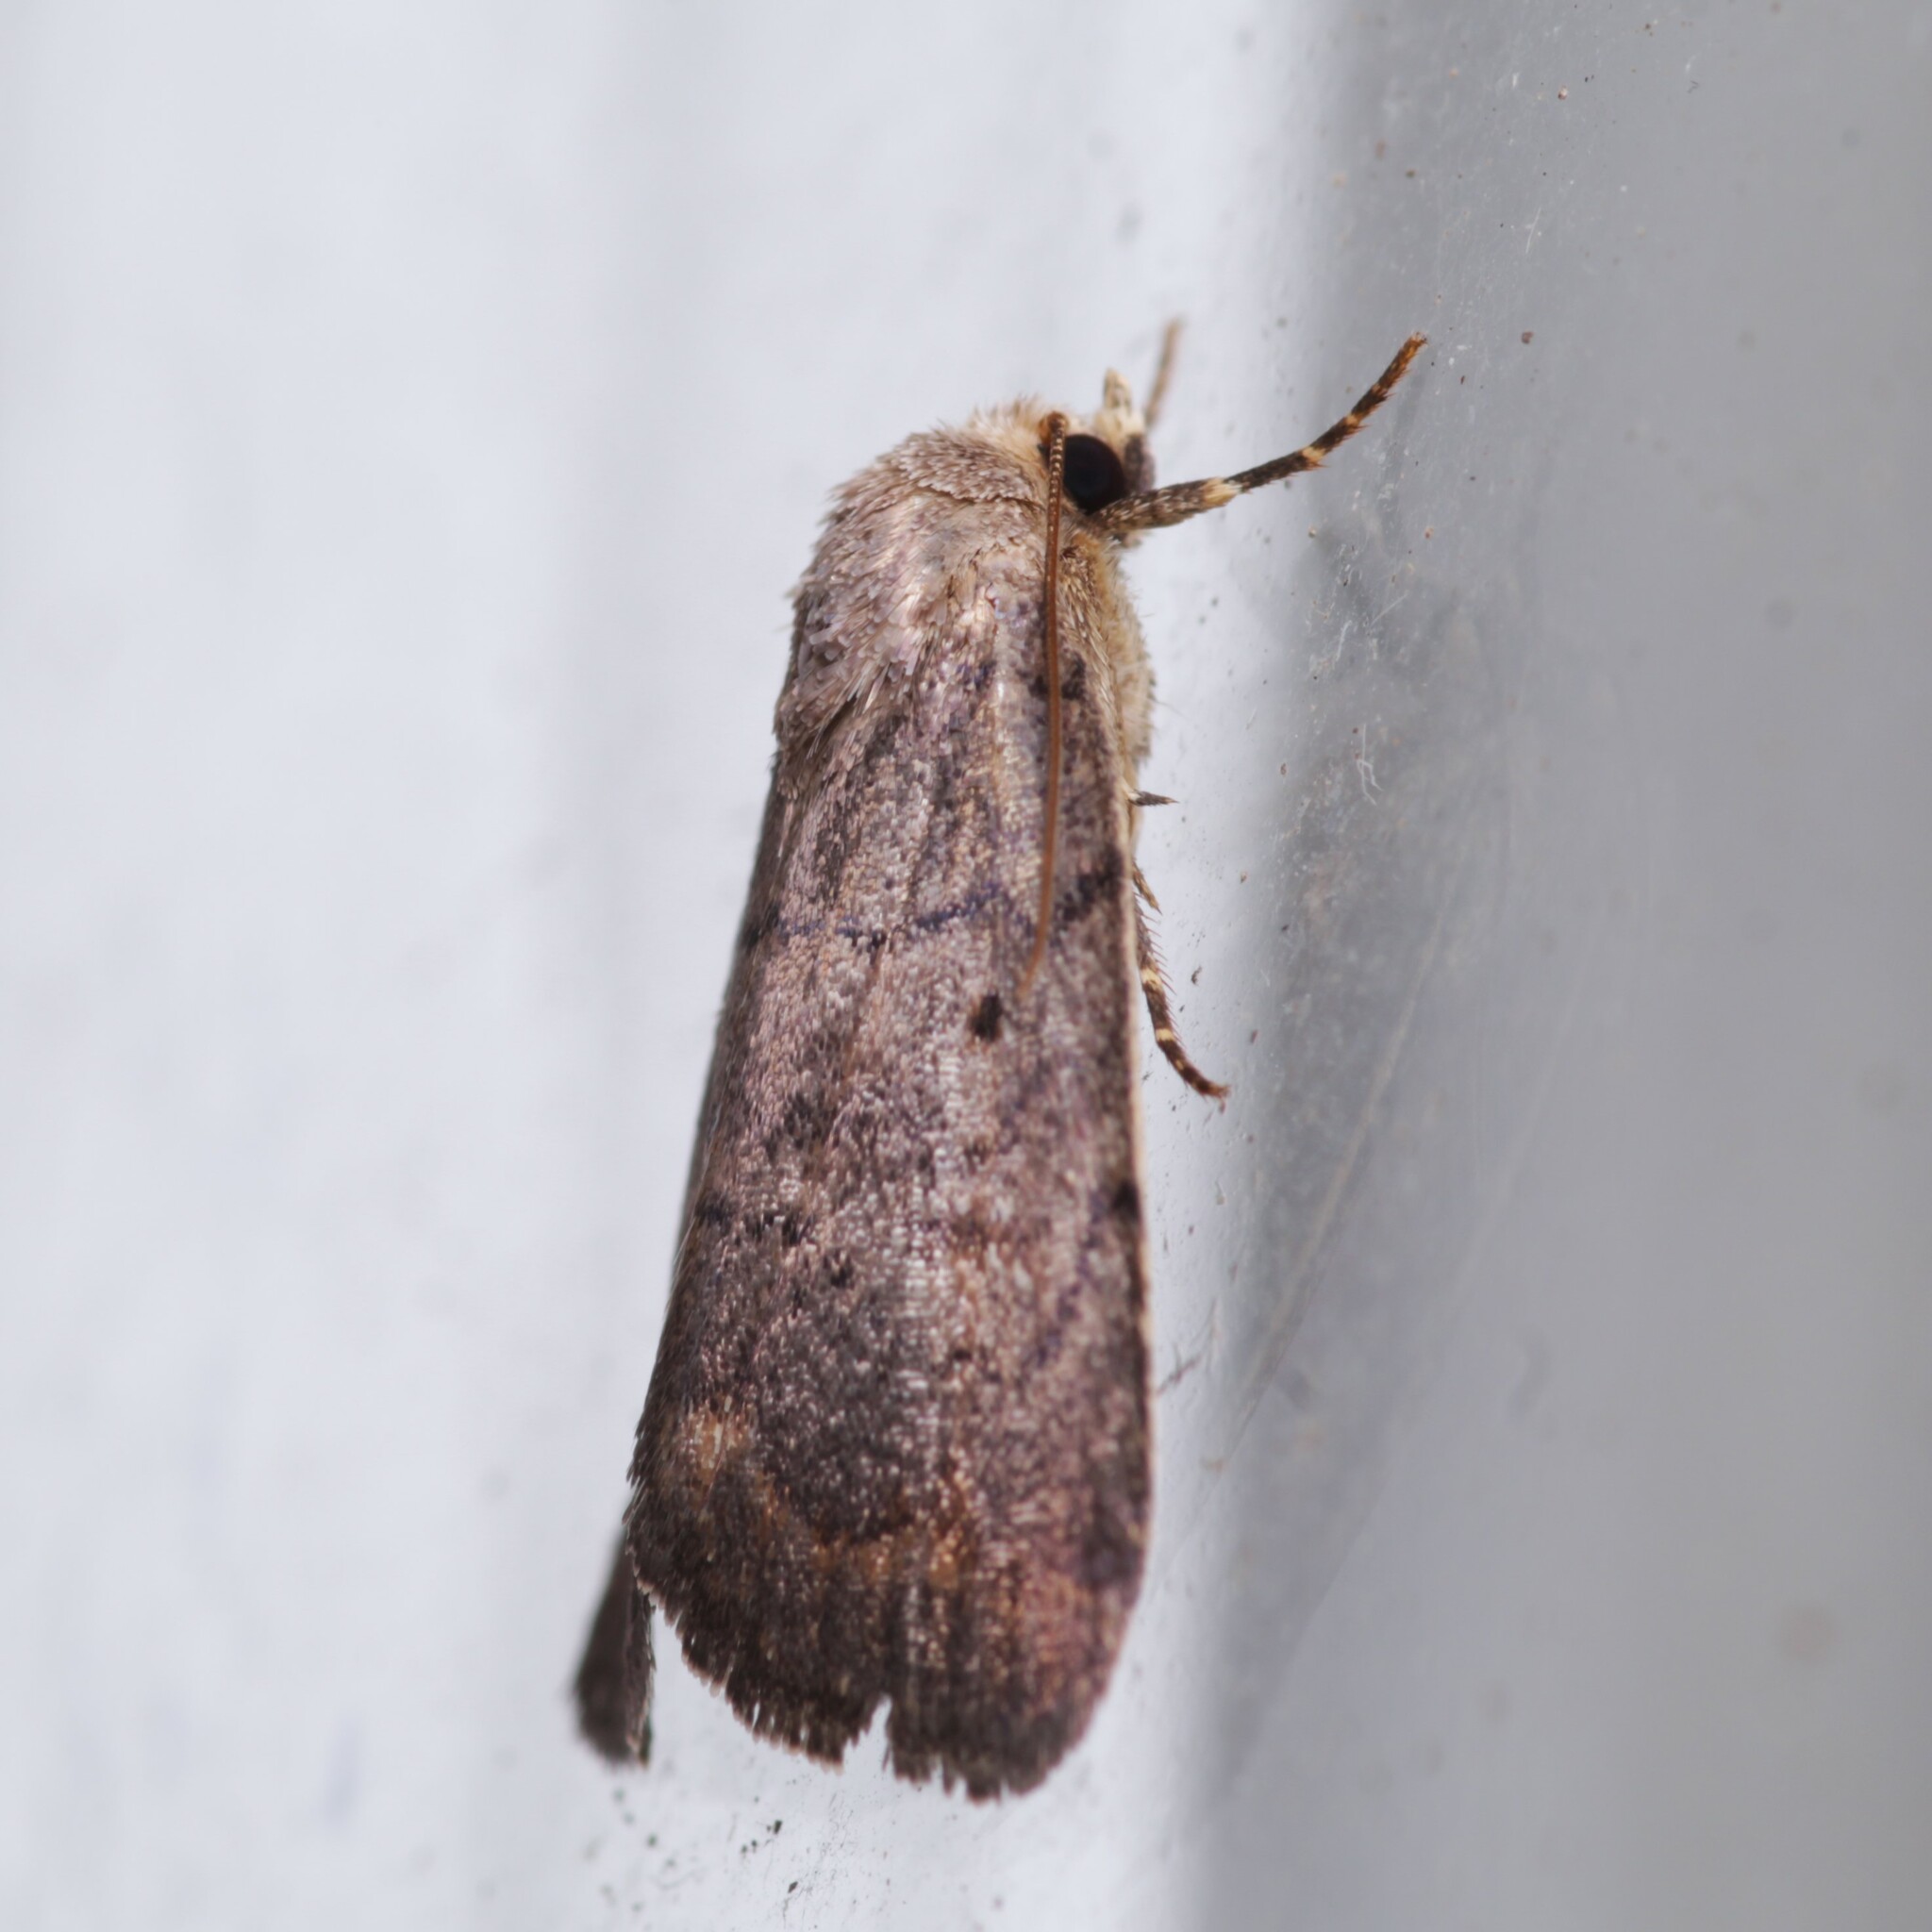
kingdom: Animalia
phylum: Arthropoda
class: Insecta
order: Lepidoptera
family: Noctuidae
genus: Athetis
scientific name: Athetis tarda
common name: Slowpoke moth
